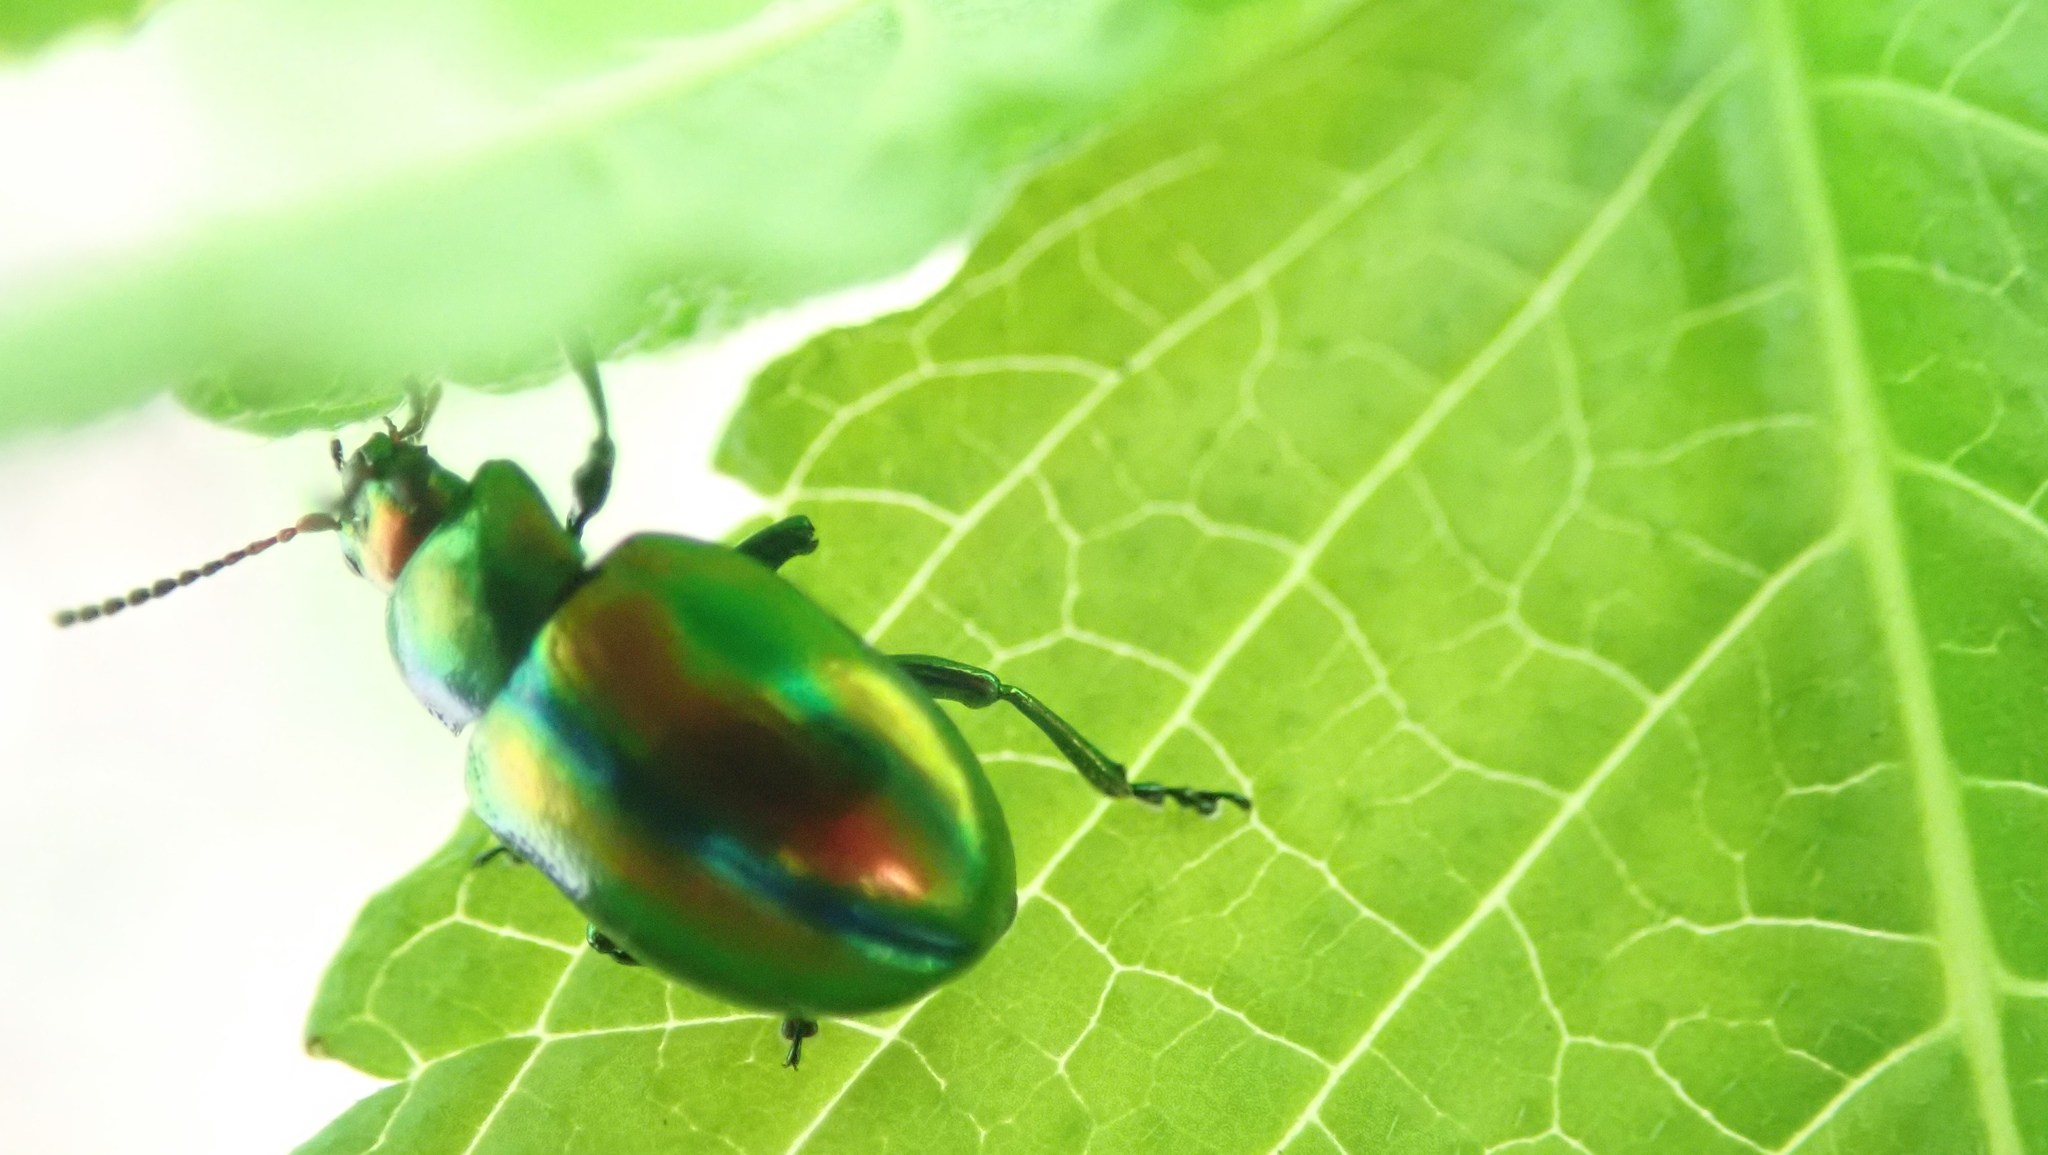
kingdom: Animalia
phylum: Arthropoda
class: Insecta
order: Coleoptera
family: Chrysomelidae
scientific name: Chrysomelidae
